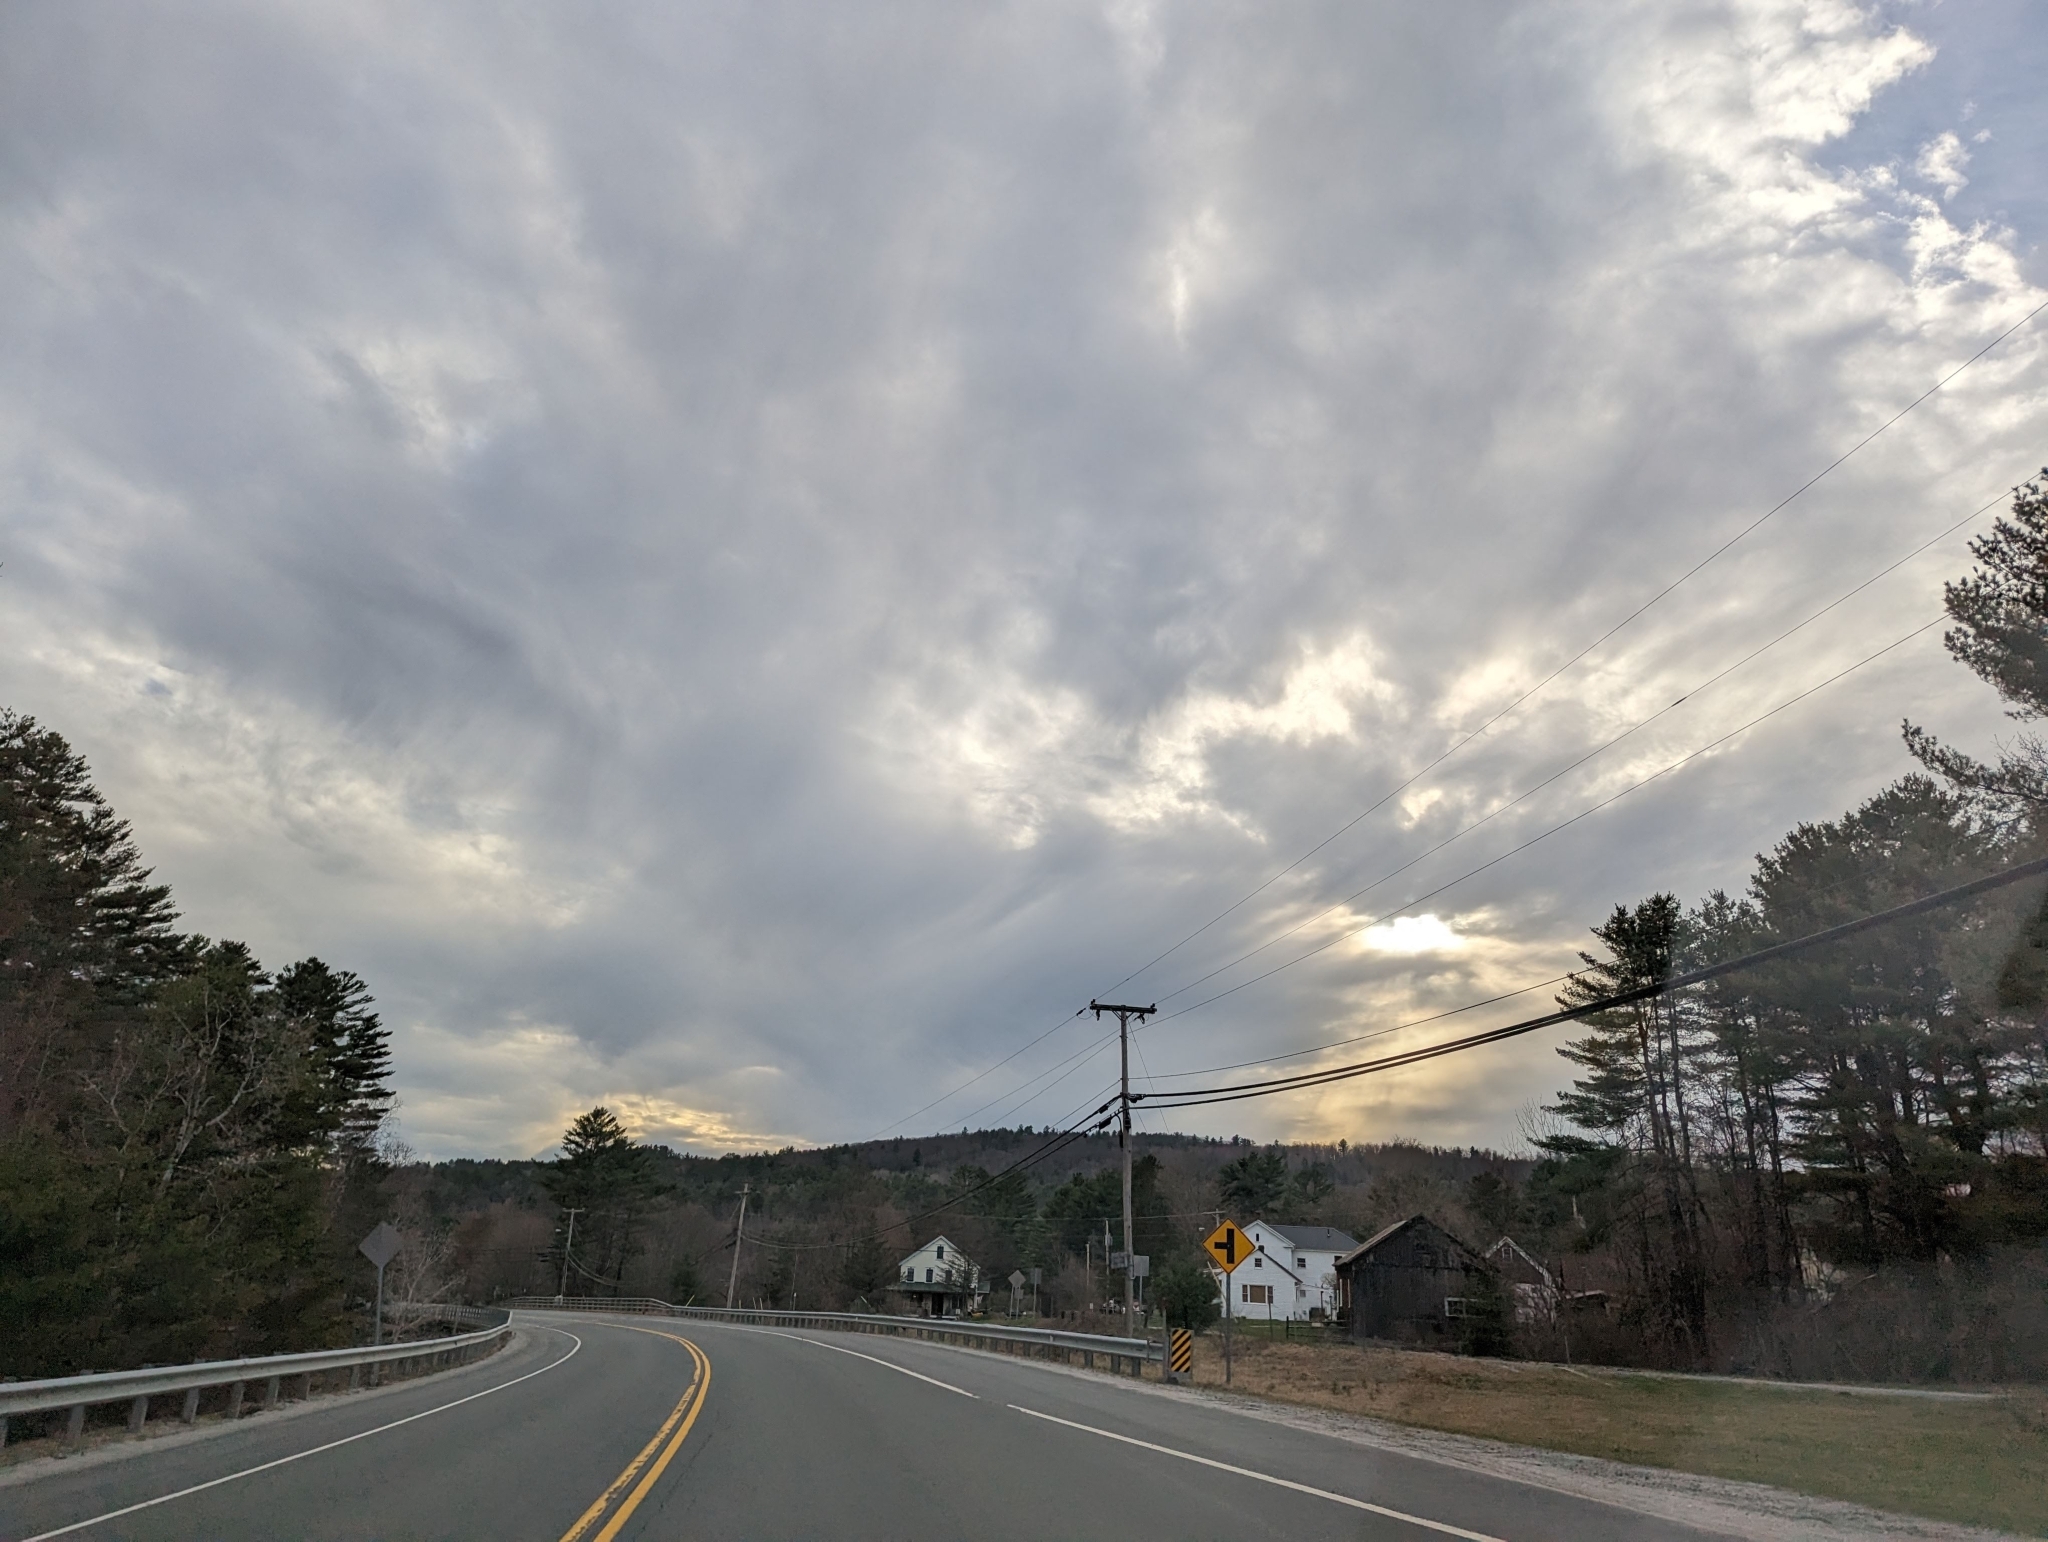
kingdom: Plantae
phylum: Tracheophyta
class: Pinopsida
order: Pinales
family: Pinaceae
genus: Pinus
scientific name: Pinus strobus
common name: Weymouth pine
